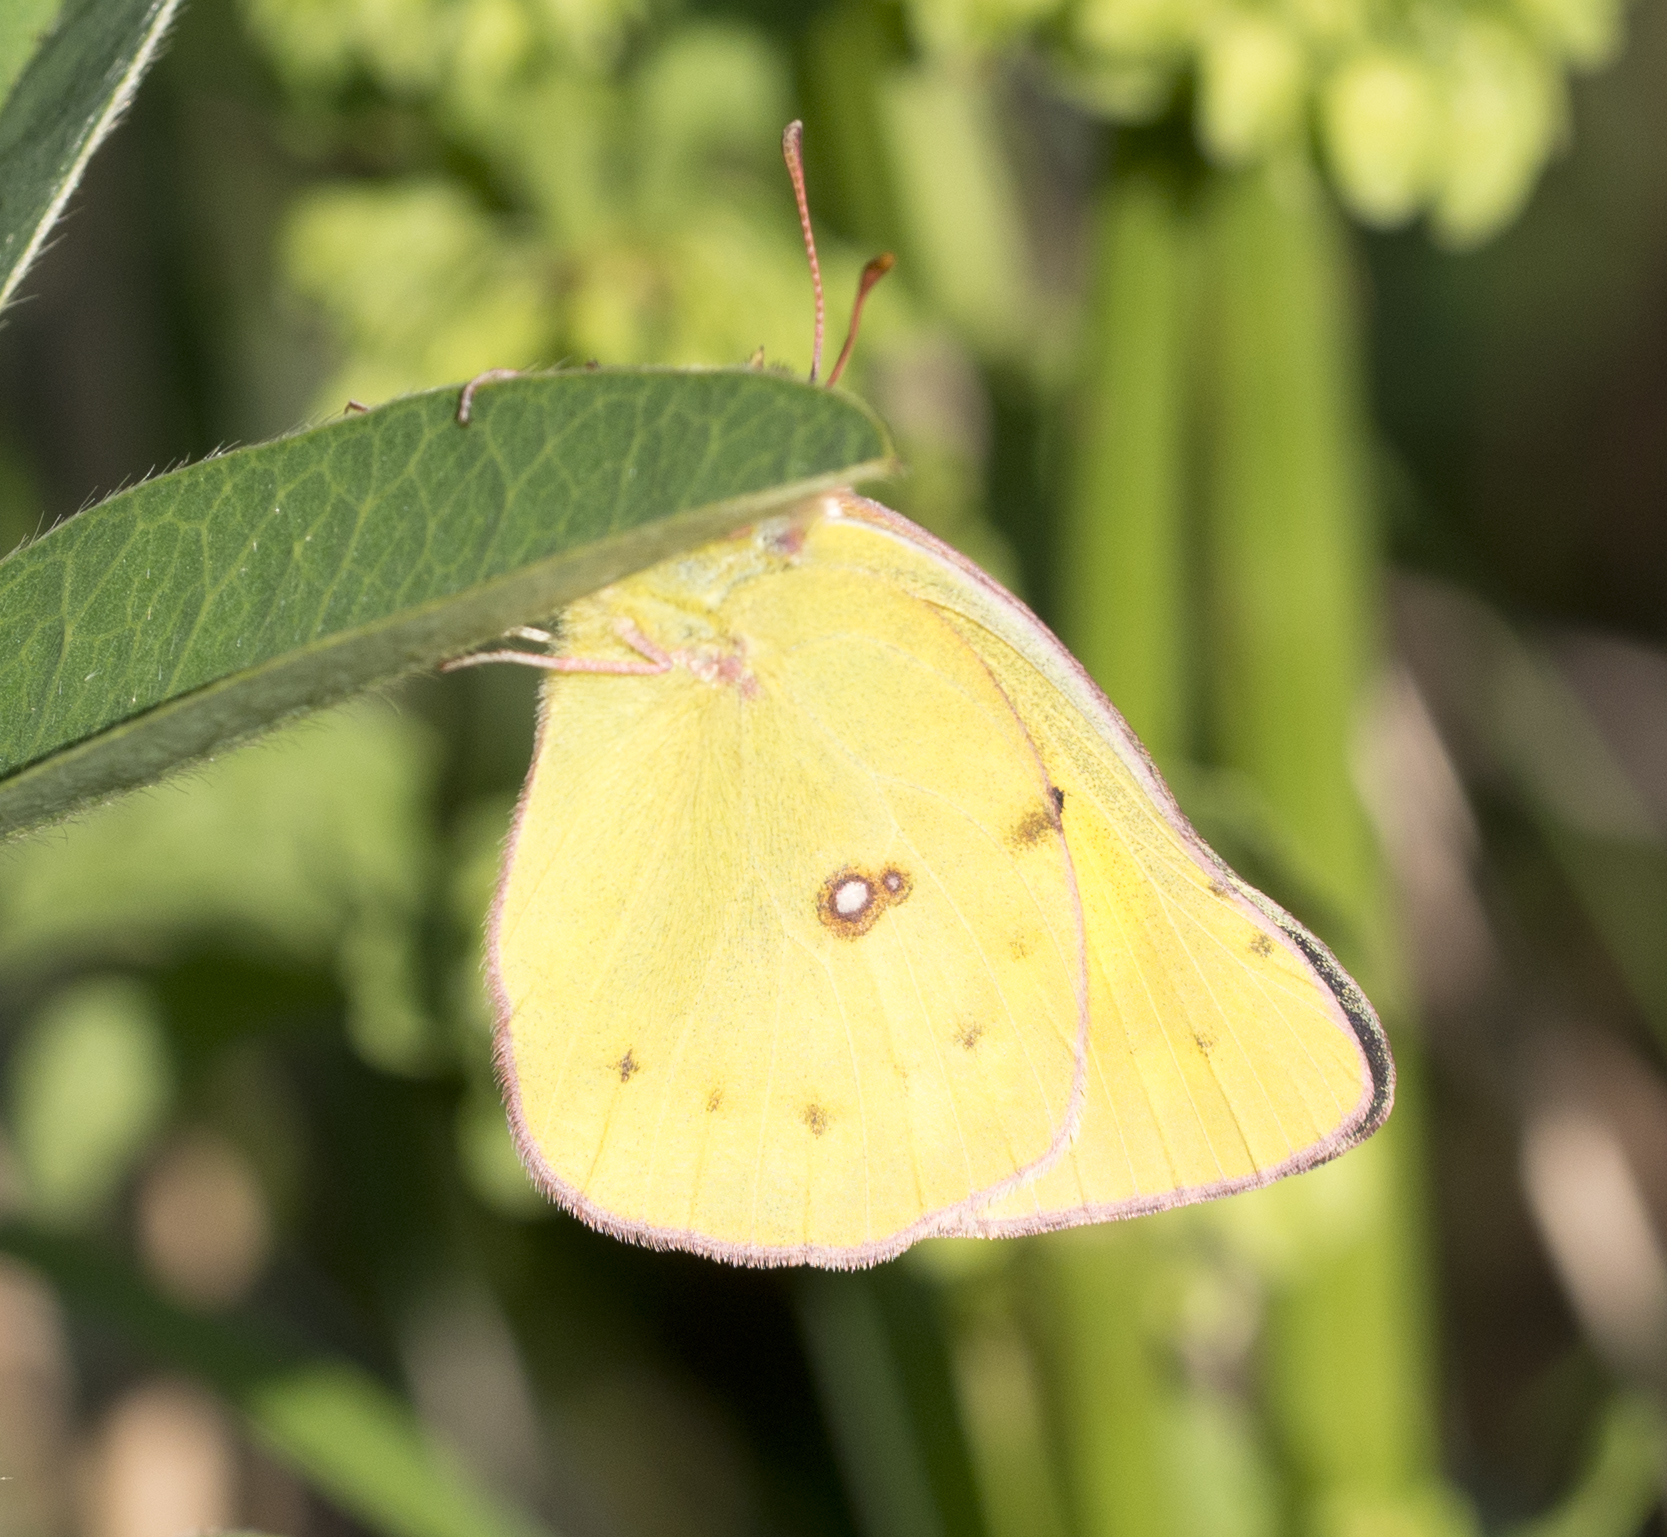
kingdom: Animalia
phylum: Arthropoda
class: Insecta
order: Lepidoptera
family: Pieridae
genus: Colias
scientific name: Colias eurytheme
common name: Alfalfa butterfly
